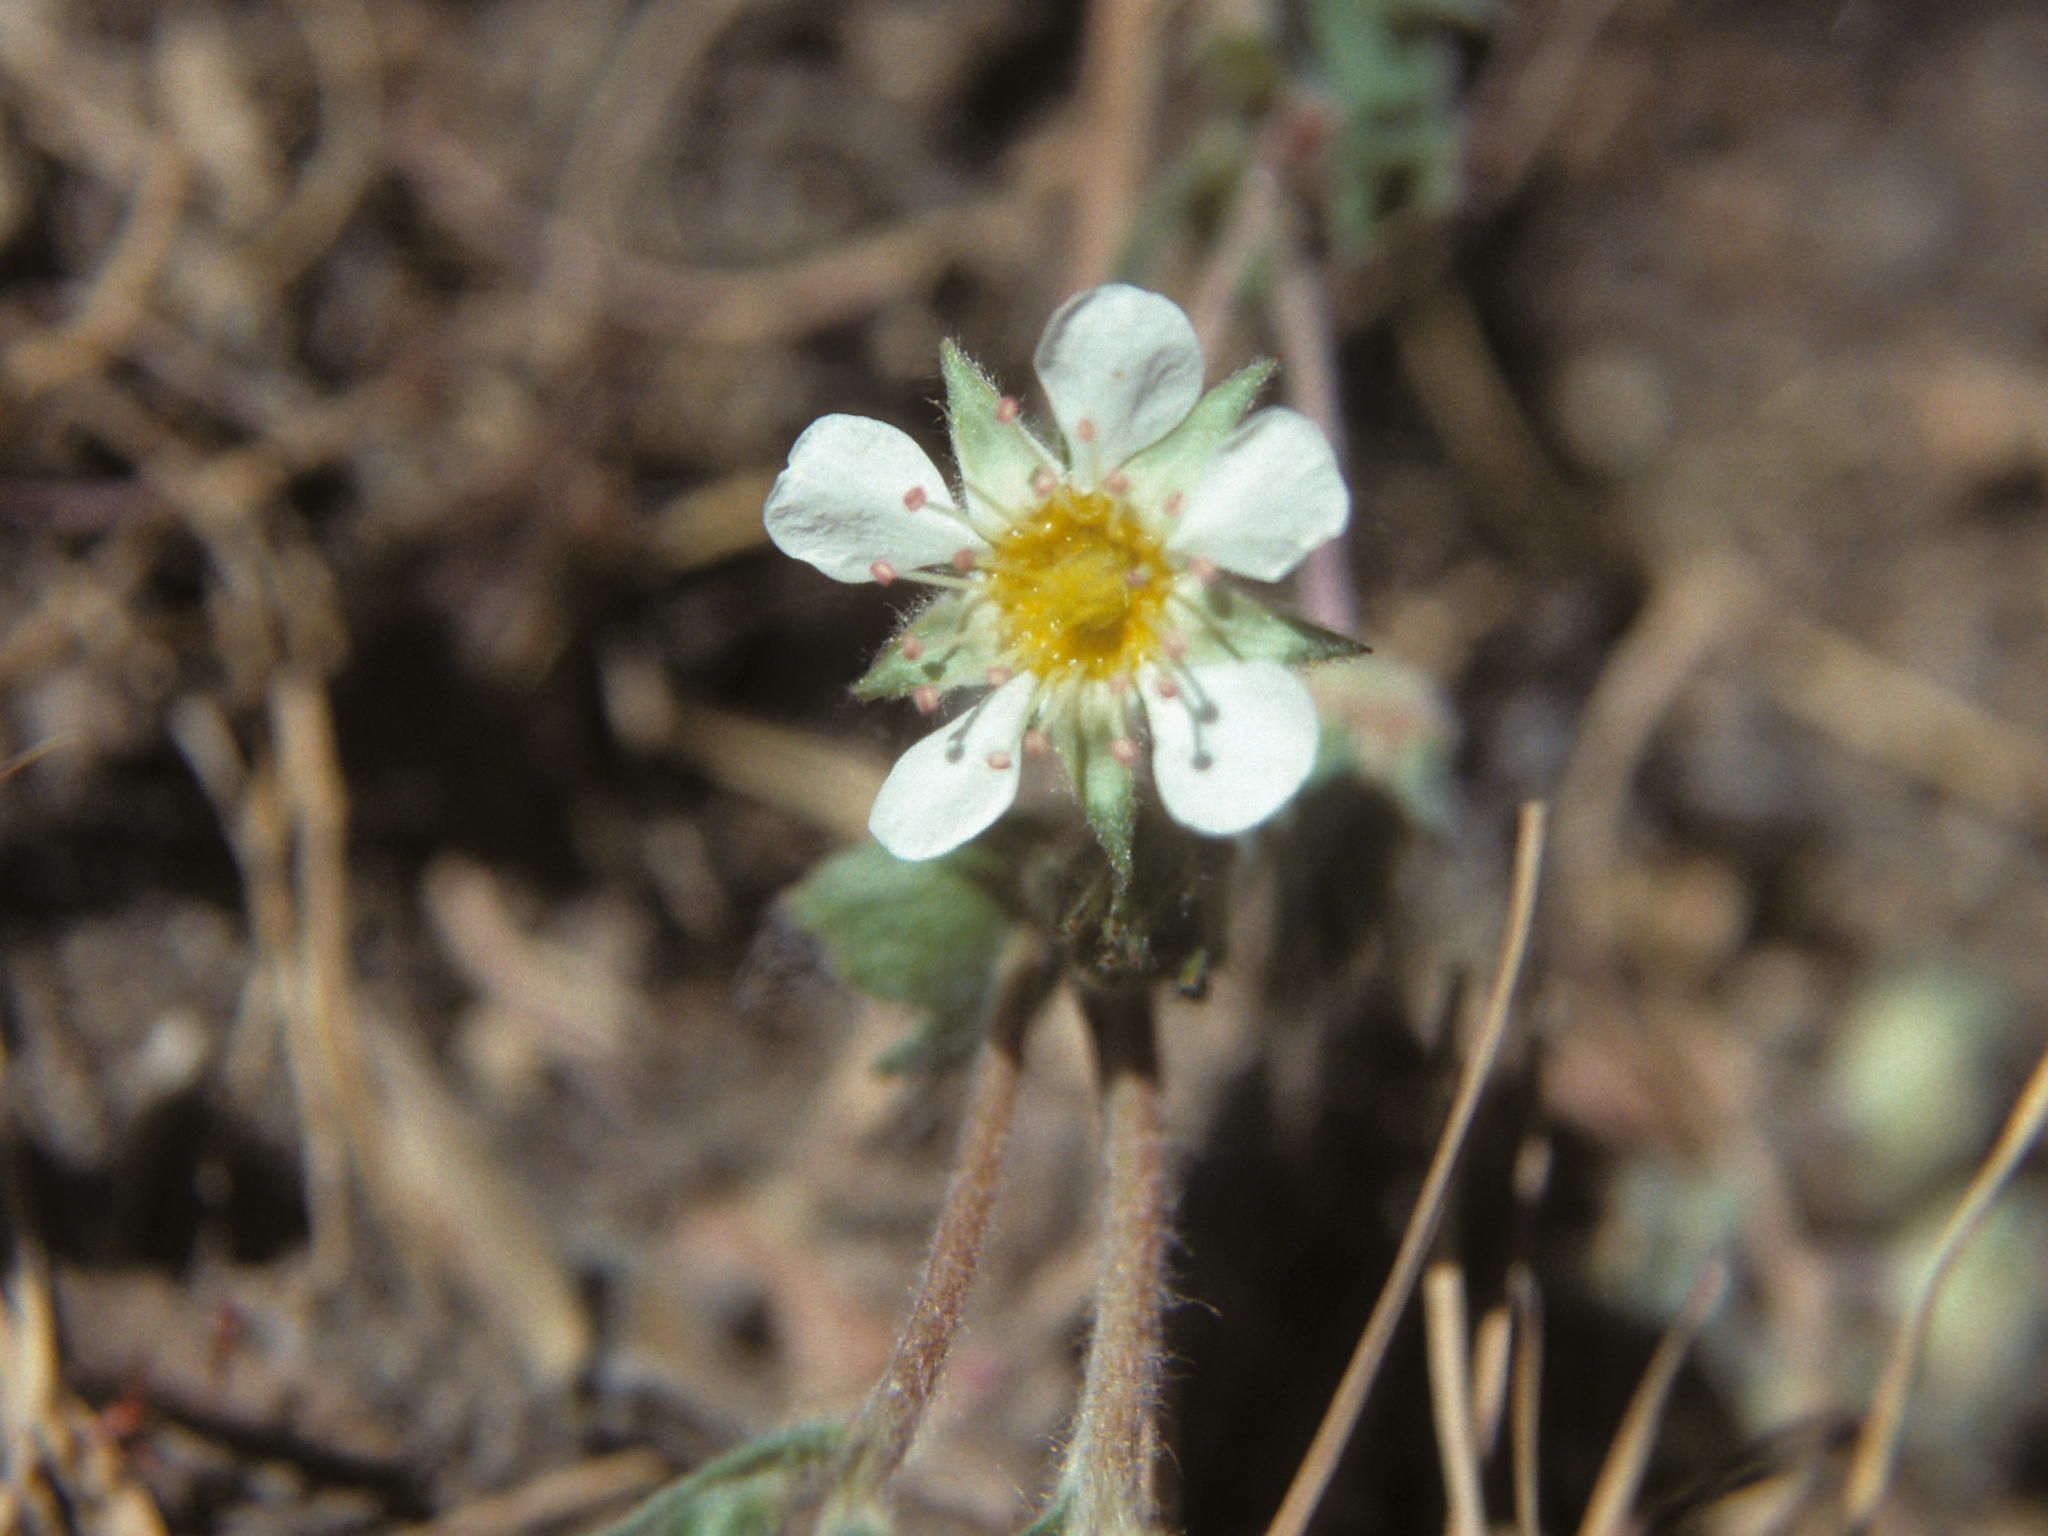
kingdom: Plantae
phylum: Tracheophyta
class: Magnoliopsida
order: Rosales
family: Rosaceae
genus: Potentilla
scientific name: Potentilla pityocharis
